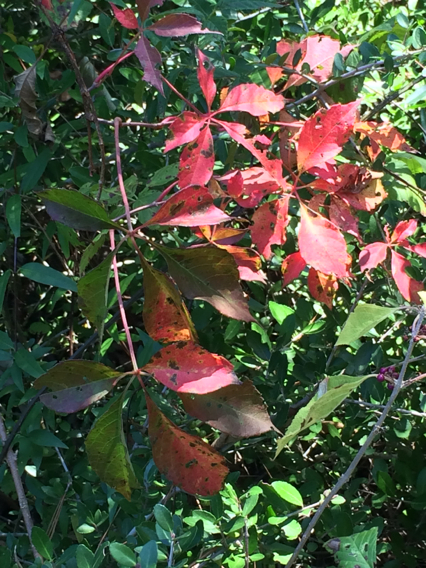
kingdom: Plantae
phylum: Tracheophyta
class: Magnoliopsida
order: Vitales
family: Vitaceae
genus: Parthenocissus
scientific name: Parthenocissus quinquefolia
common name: Virginia-creeper
